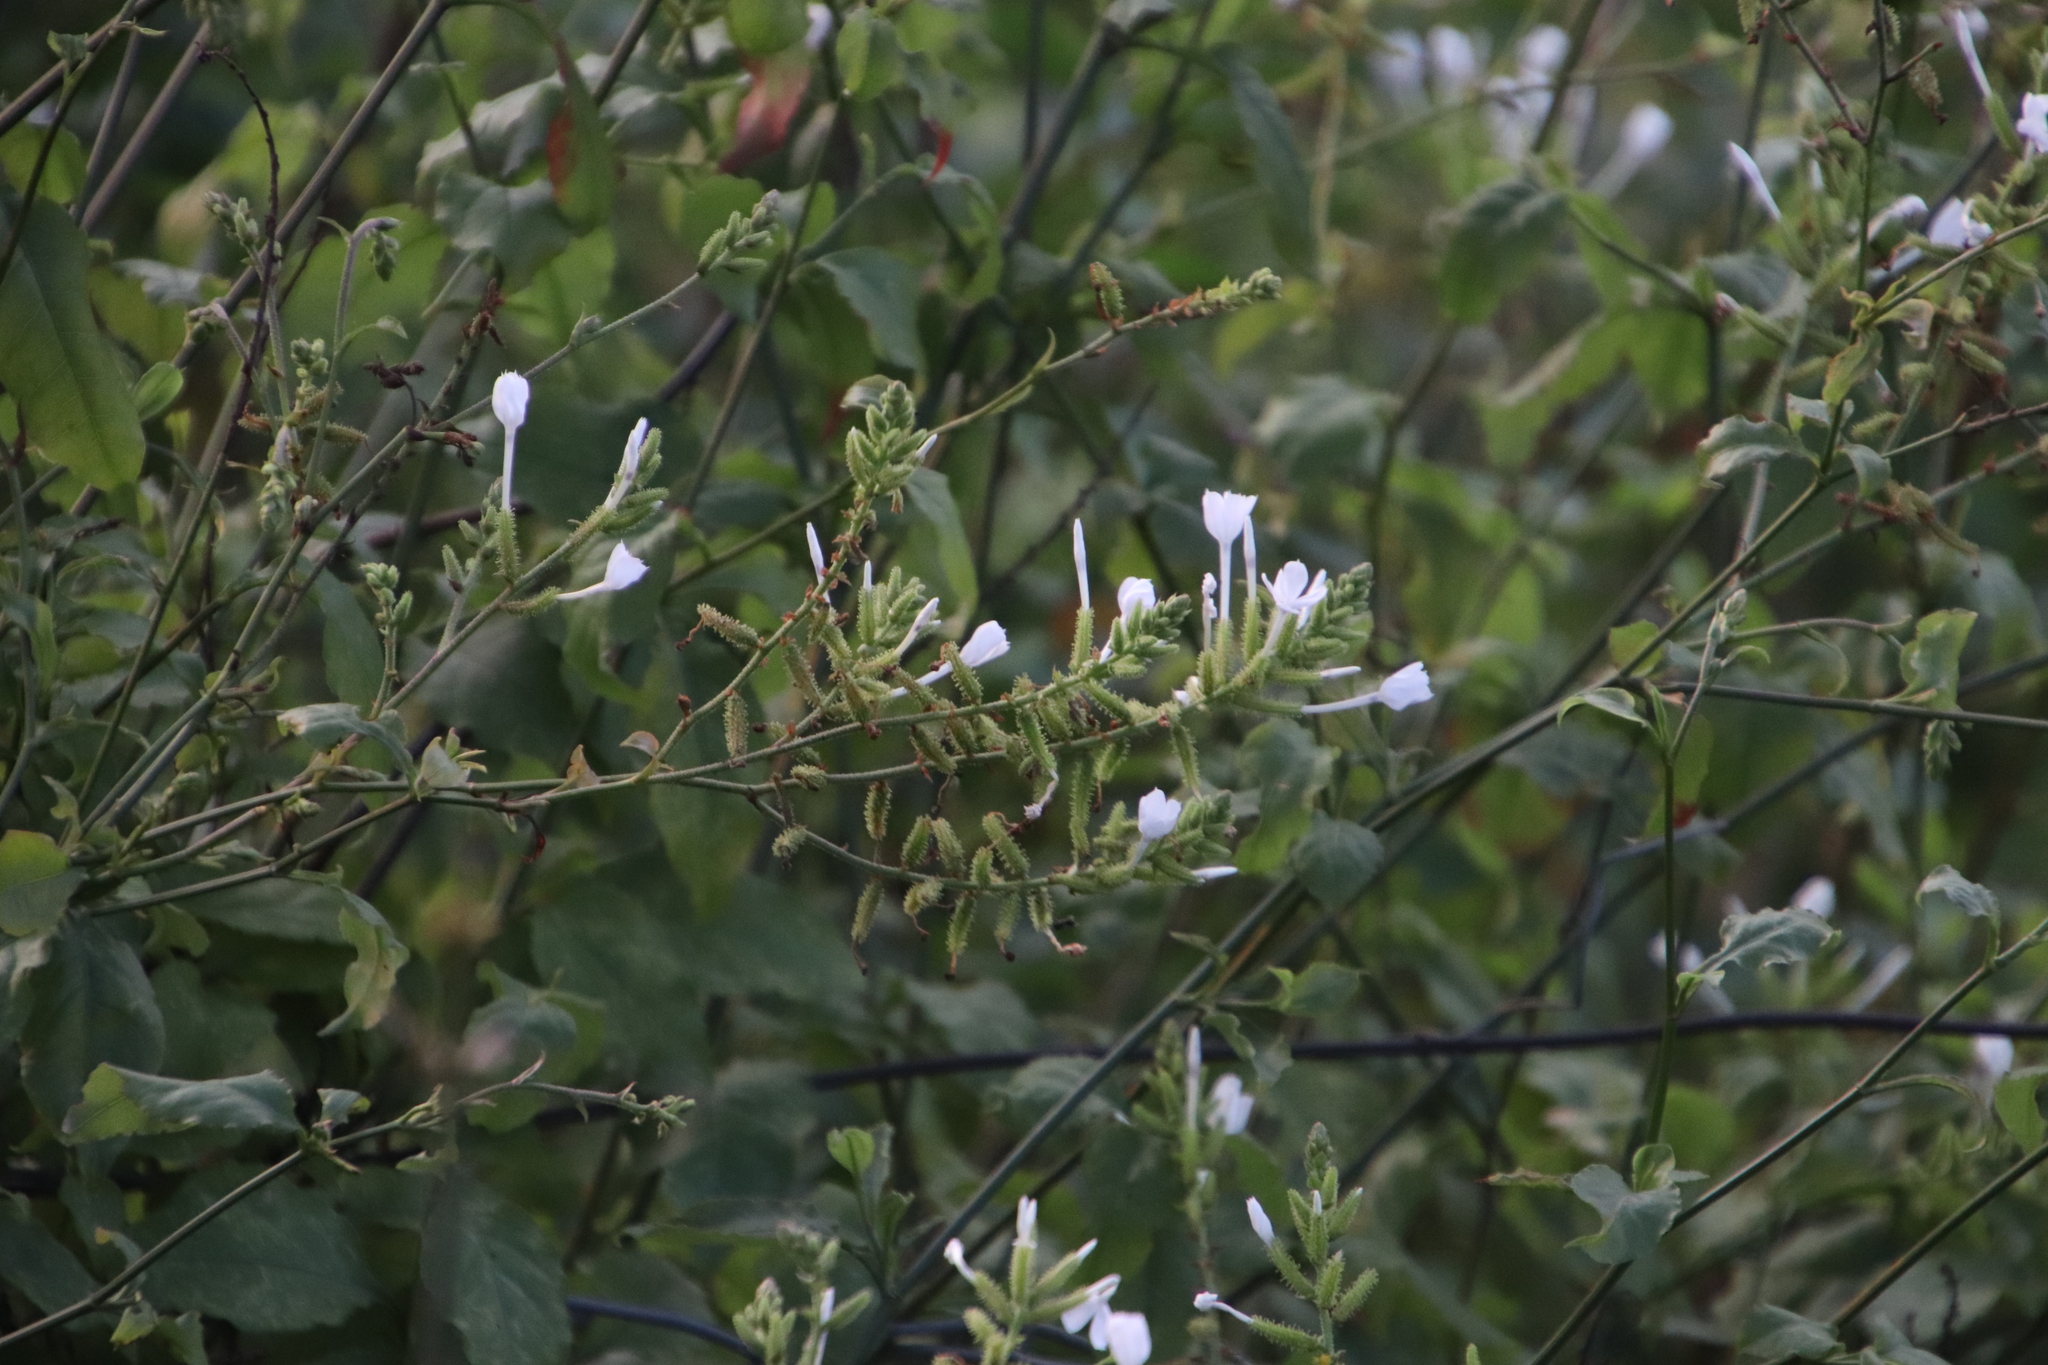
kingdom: Plantae
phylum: Tracheophyta
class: Magnoliopsida
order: Caryophyllales
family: Plumbaginaceae
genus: Plumbago
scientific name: Plumbago auriculata
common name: Cape leadwort
